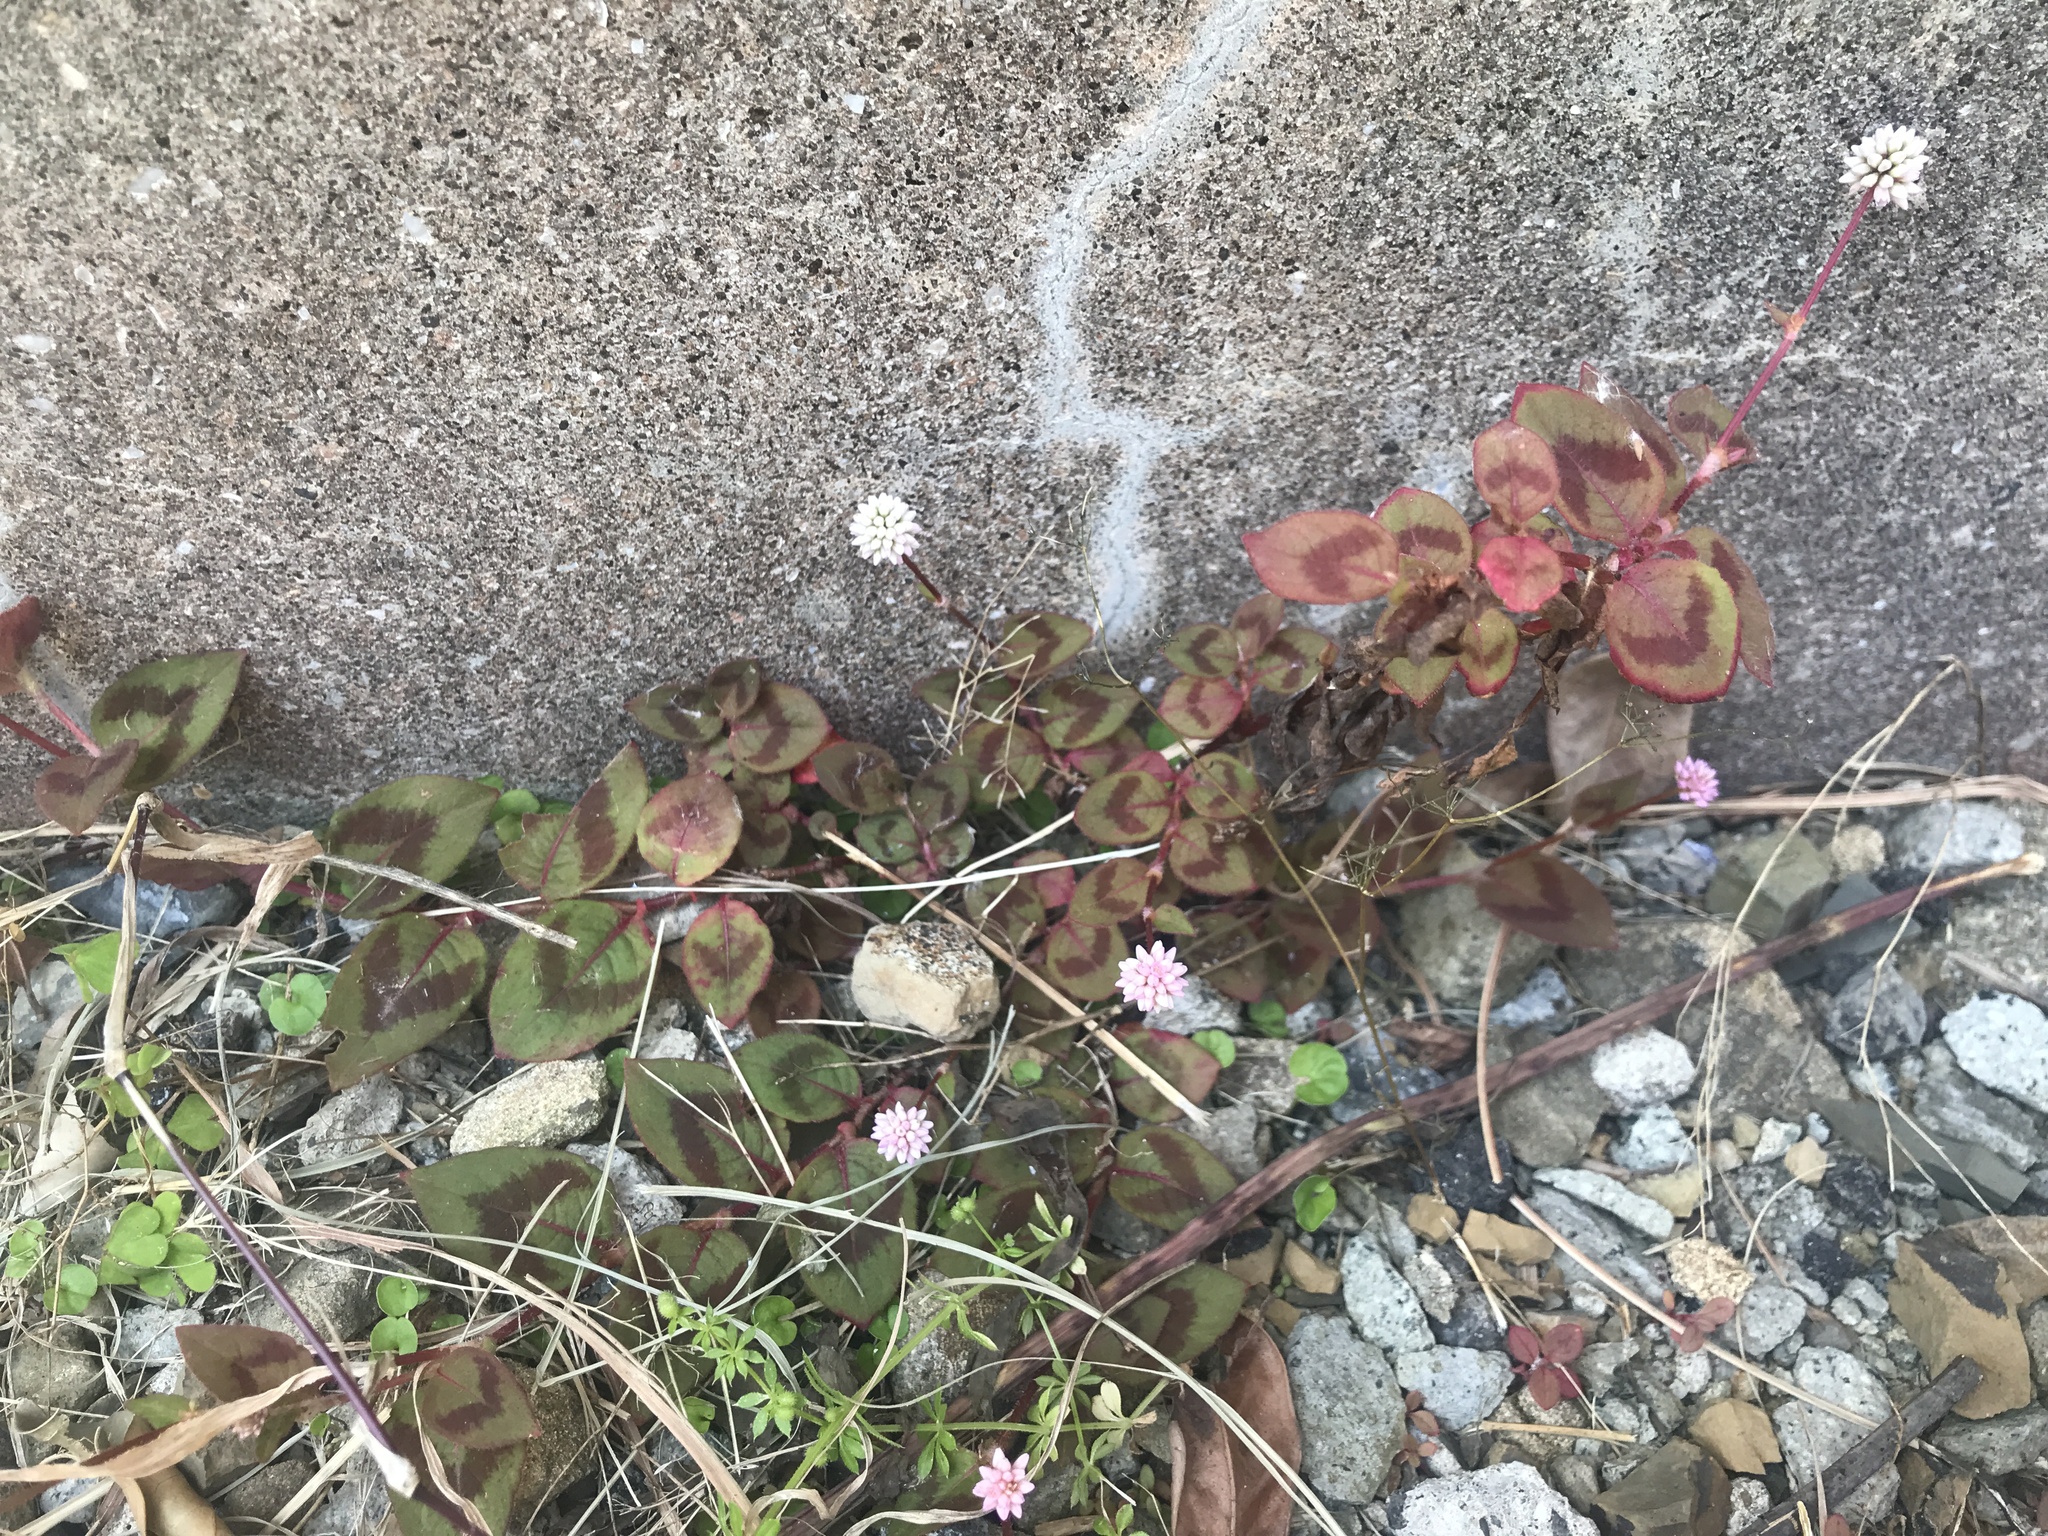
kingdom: Plantae
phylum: Tracheophyta
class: Magnoliopsida
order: Caryophyllales
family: Polygonaceae
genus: Persicaria
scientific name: Persicaria capitata
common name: Pinkhead smartweed
